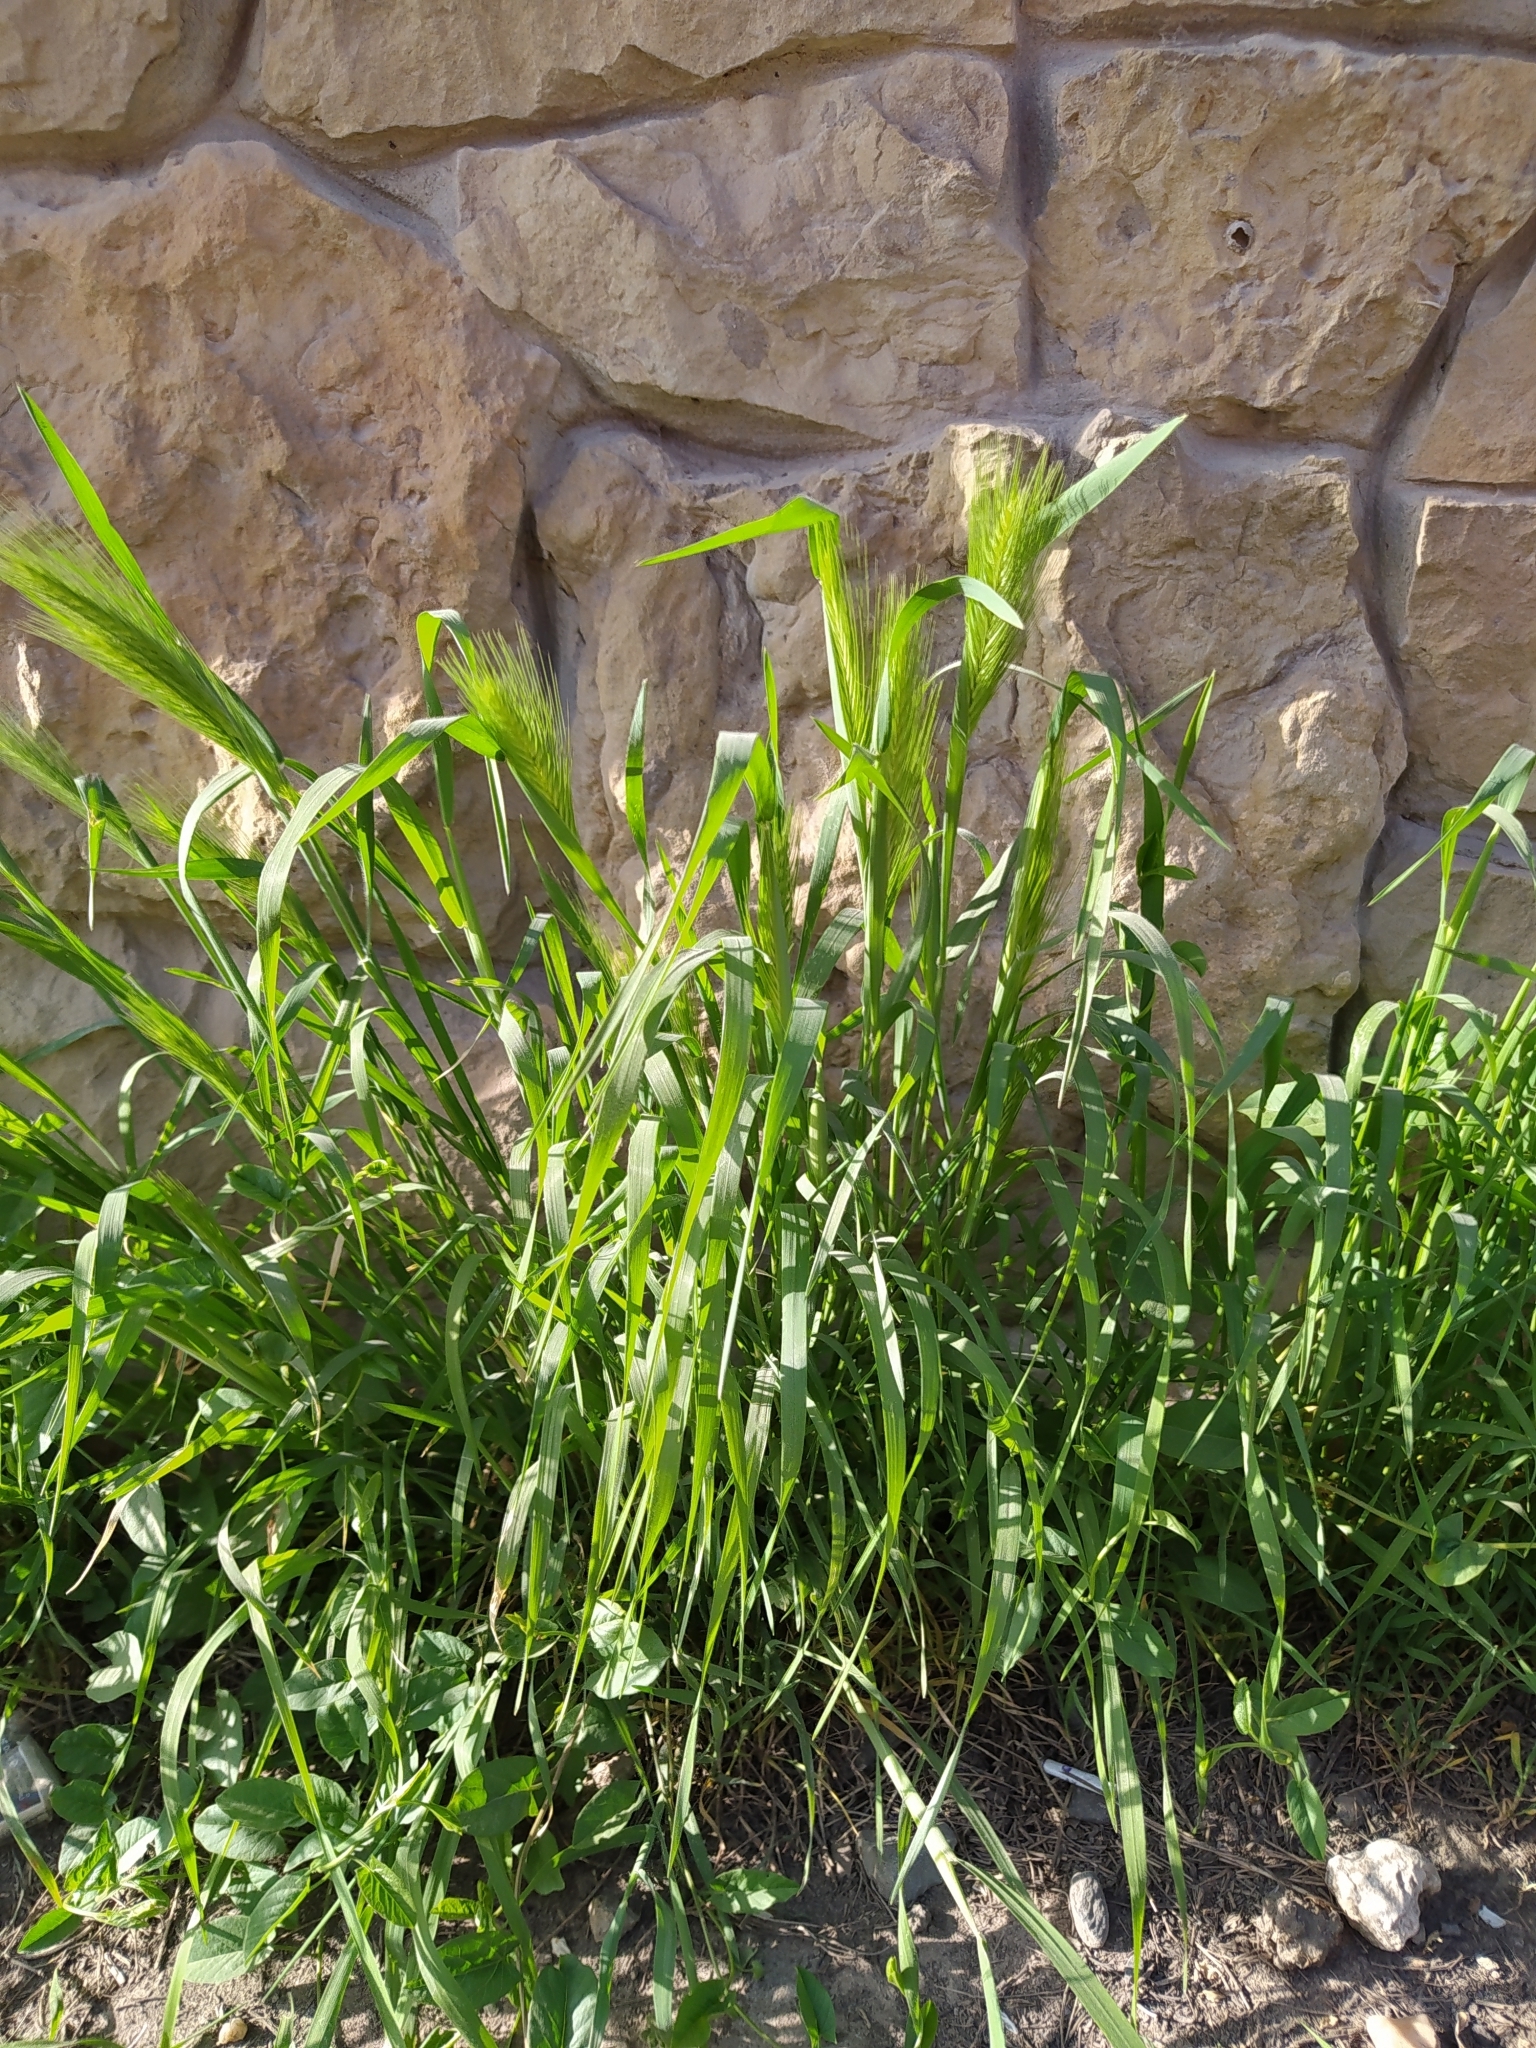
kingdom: Plantae
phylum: Tracheophyta
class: Liliopsida
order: Poales
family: Poaceae
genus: Hordeum
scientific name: Hordeum murinum
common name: Wall barley
